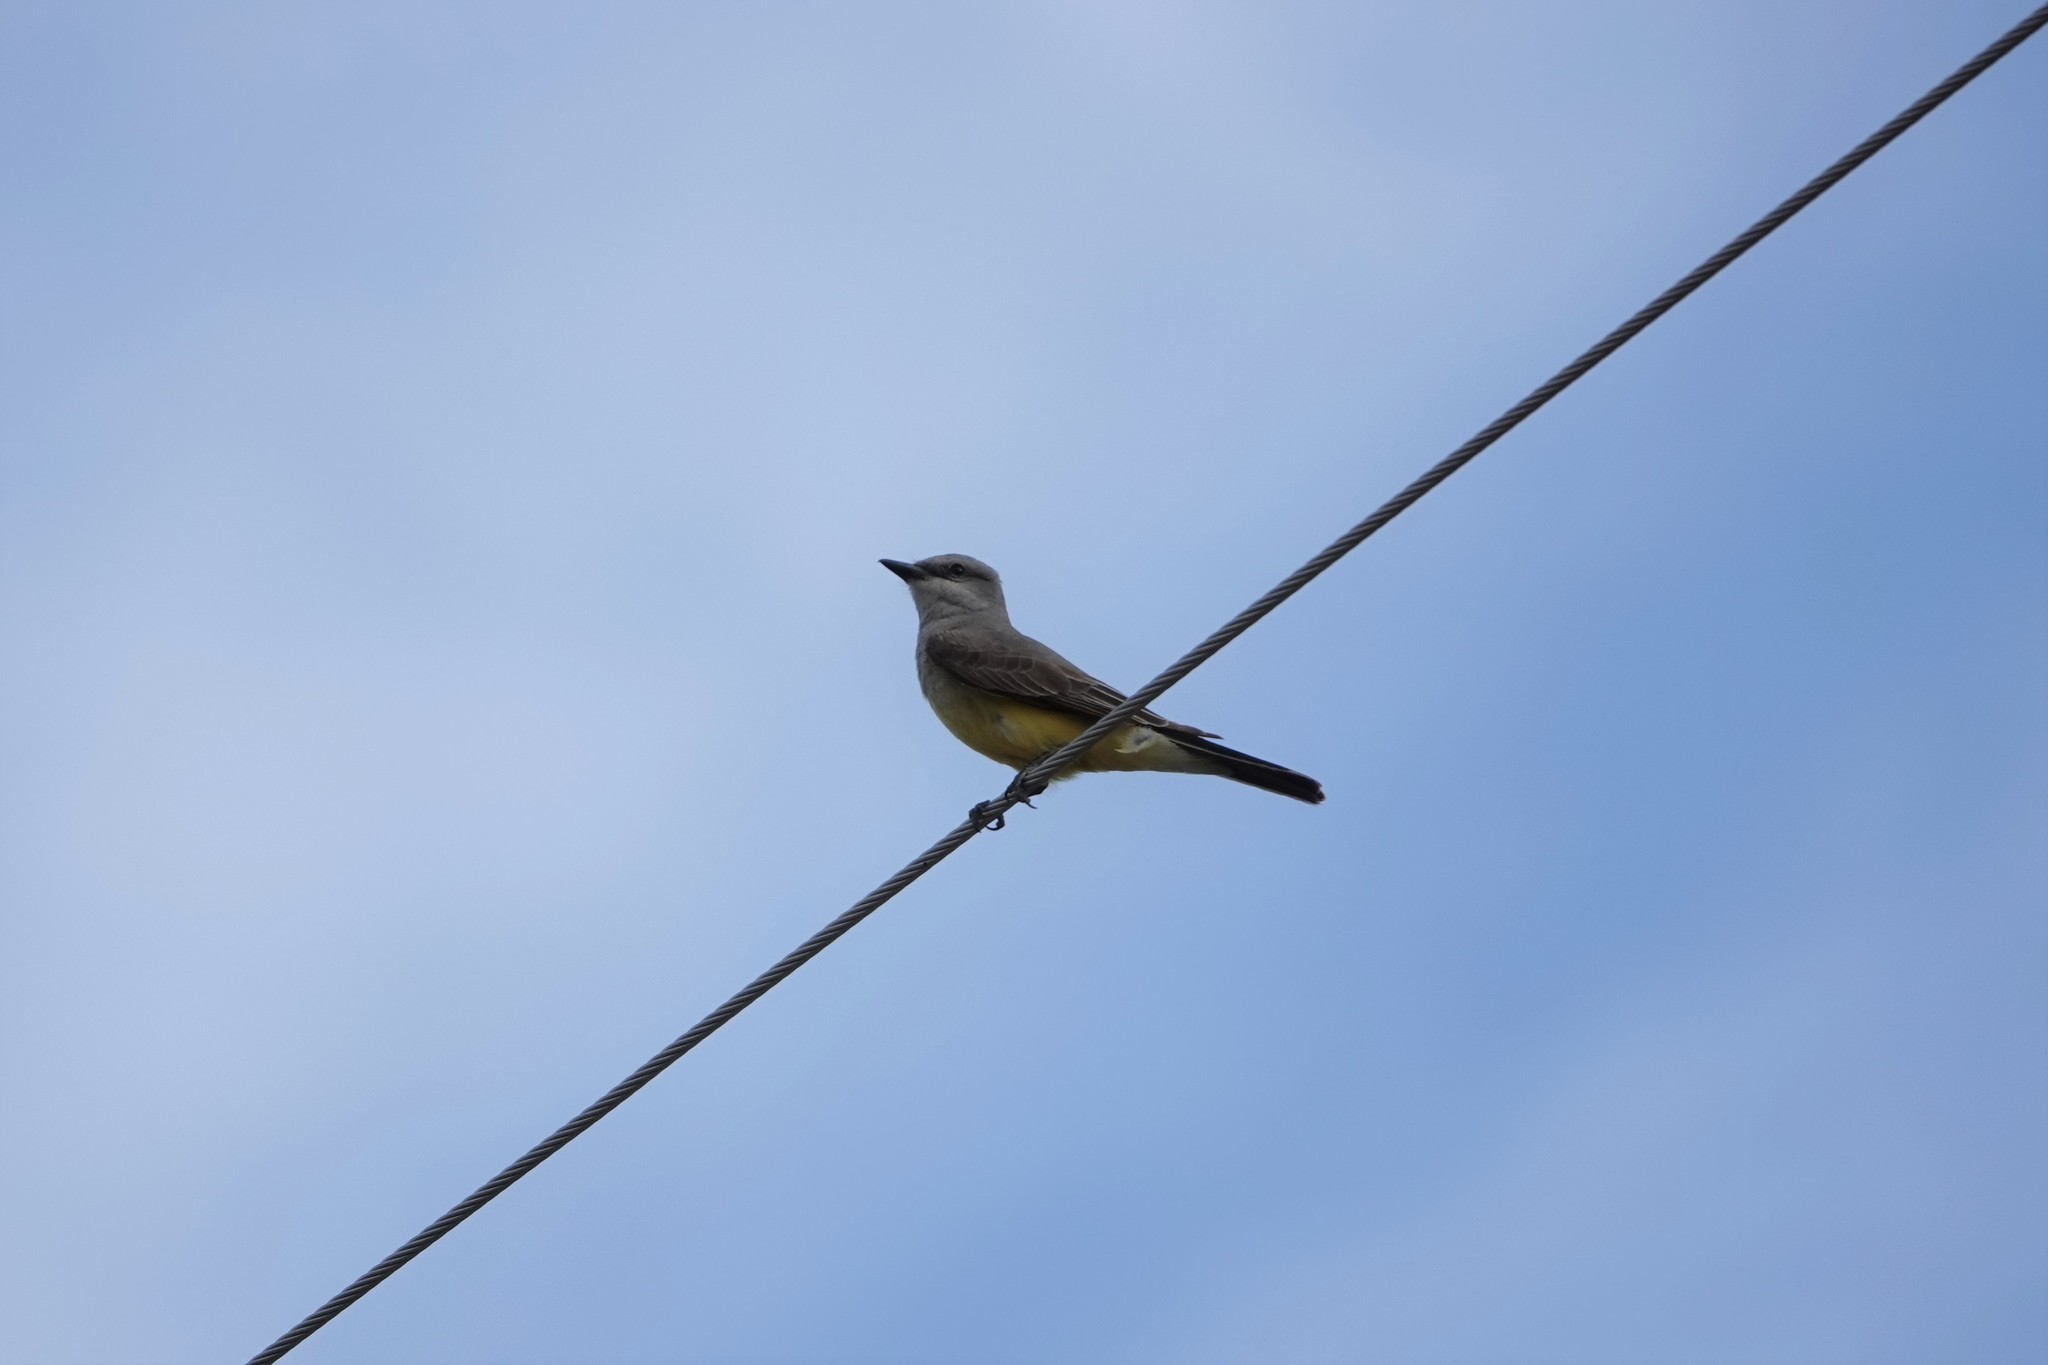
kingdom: Animalia
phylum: Chordata
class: Aves
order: Passeriformes
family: Tyrannidae
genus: Tyrannus
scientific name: Tyrannus verticalis
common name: Western kingbird
